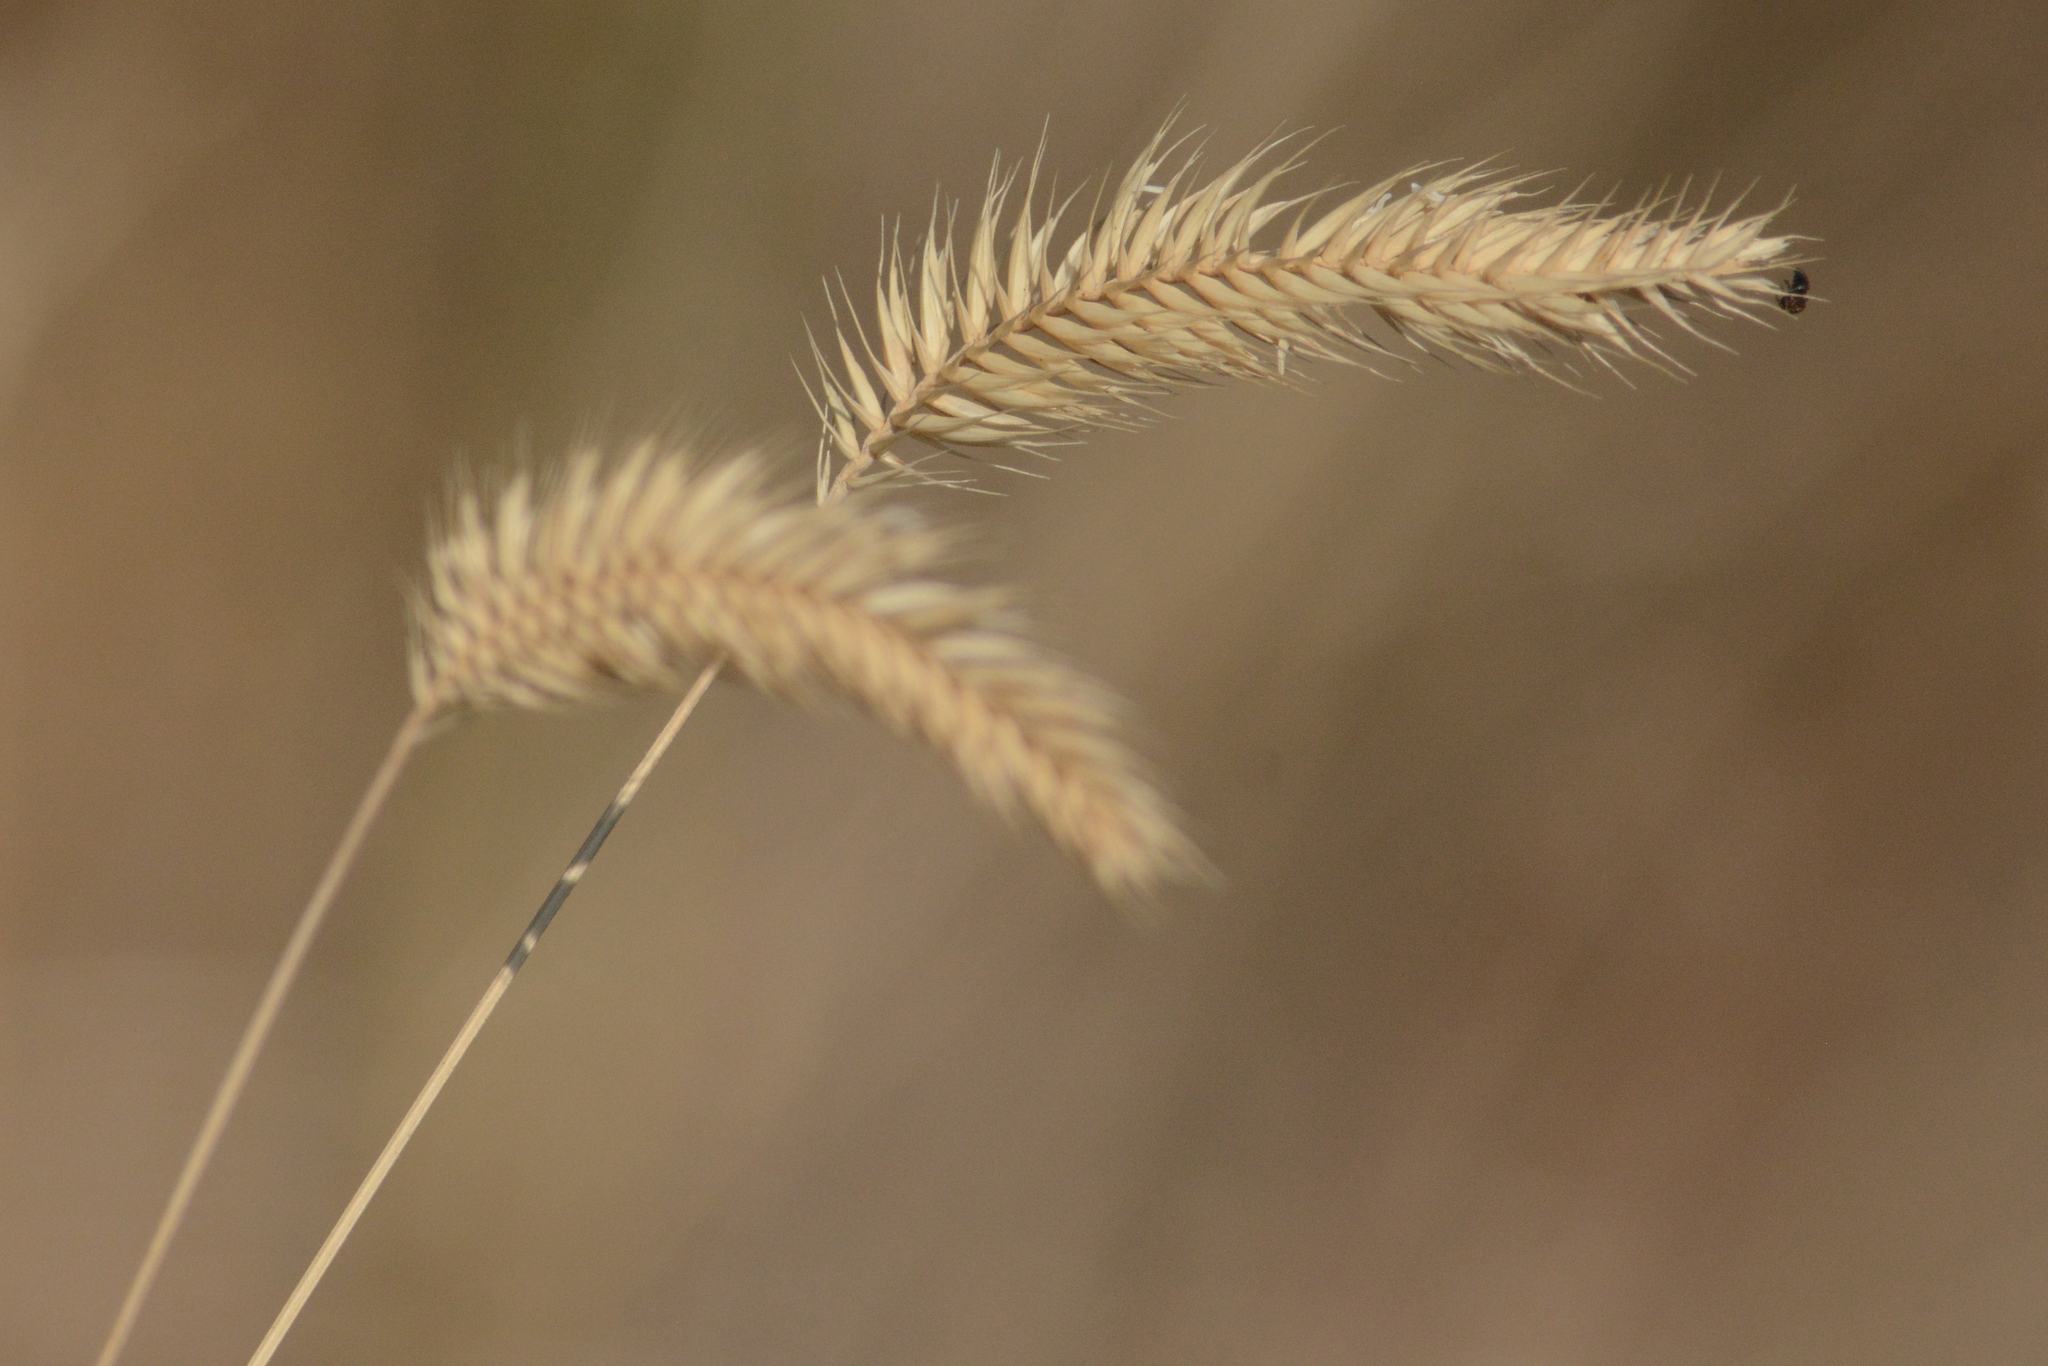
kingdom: Plantae
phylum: Tracheophyta
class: Liliopsida
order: Poales
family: Poaceae
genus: Agropyron
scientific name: Agropyron cristatum
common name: Crested wheatgrass
